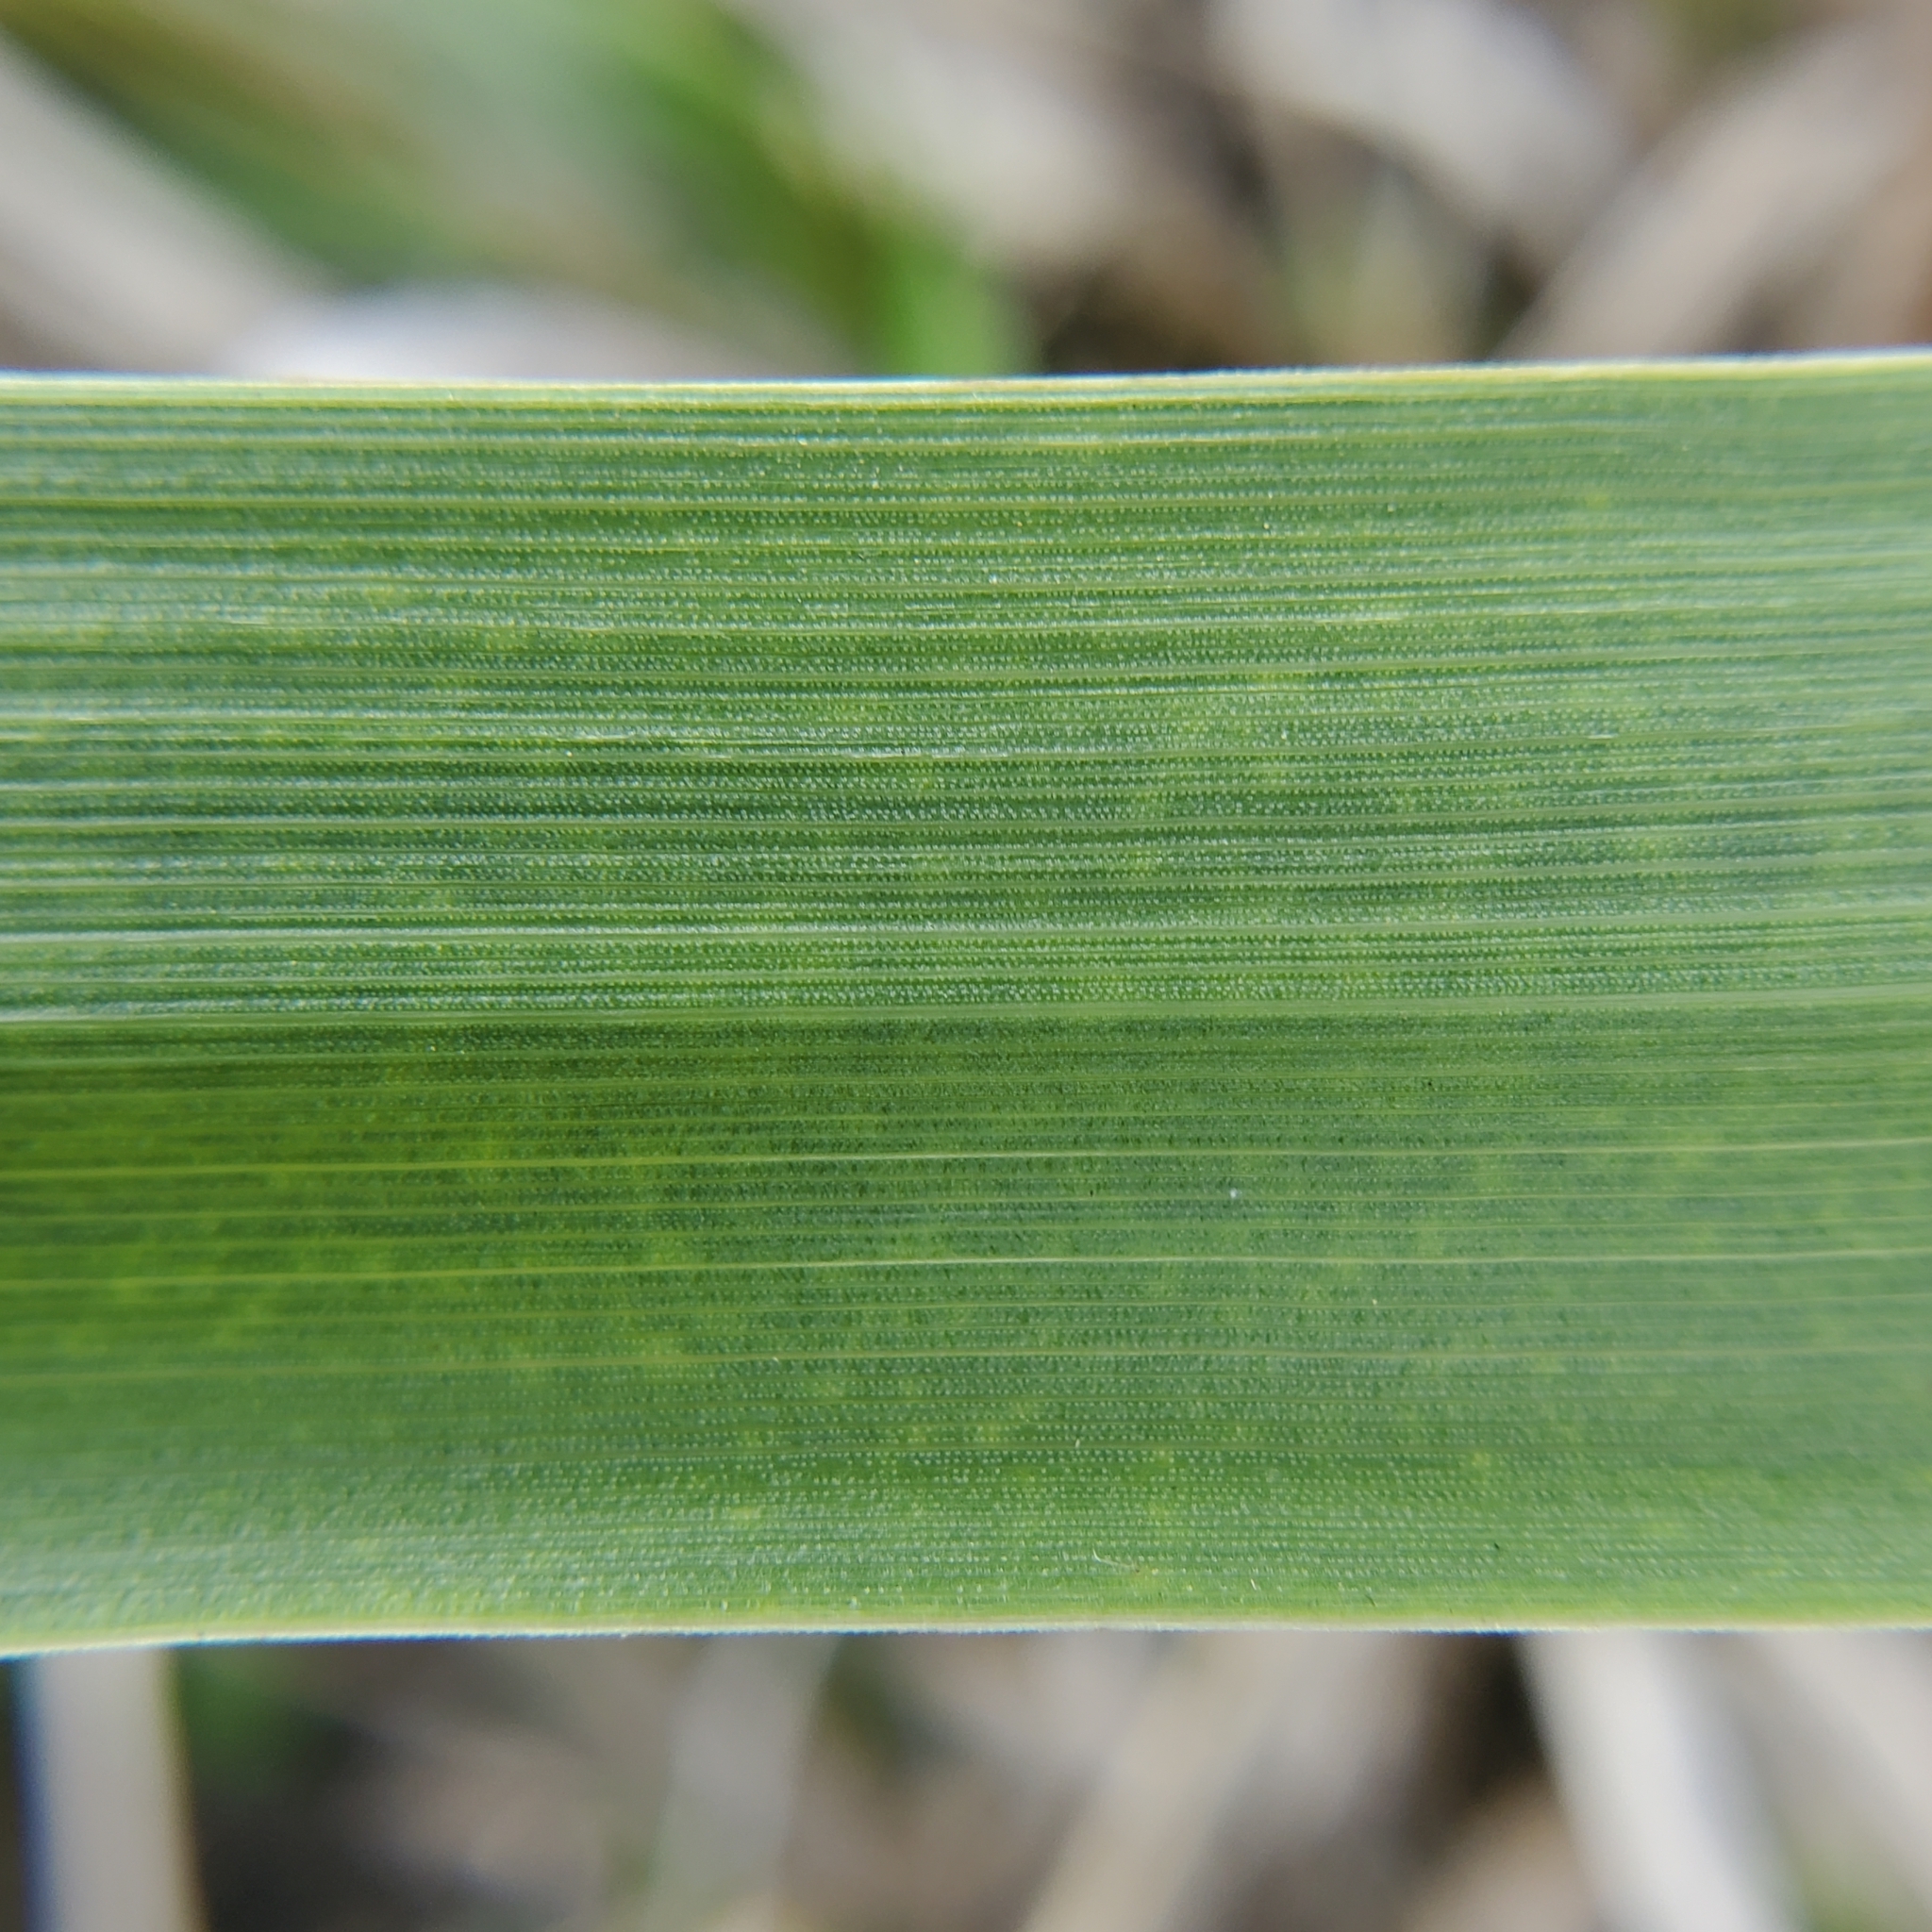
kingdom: Plantae
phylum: Tracheophyta
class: Liliopsida
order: Poales
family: Poaceae
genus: Leymus
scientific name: Leymus condensatus
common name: Giant wild rye
